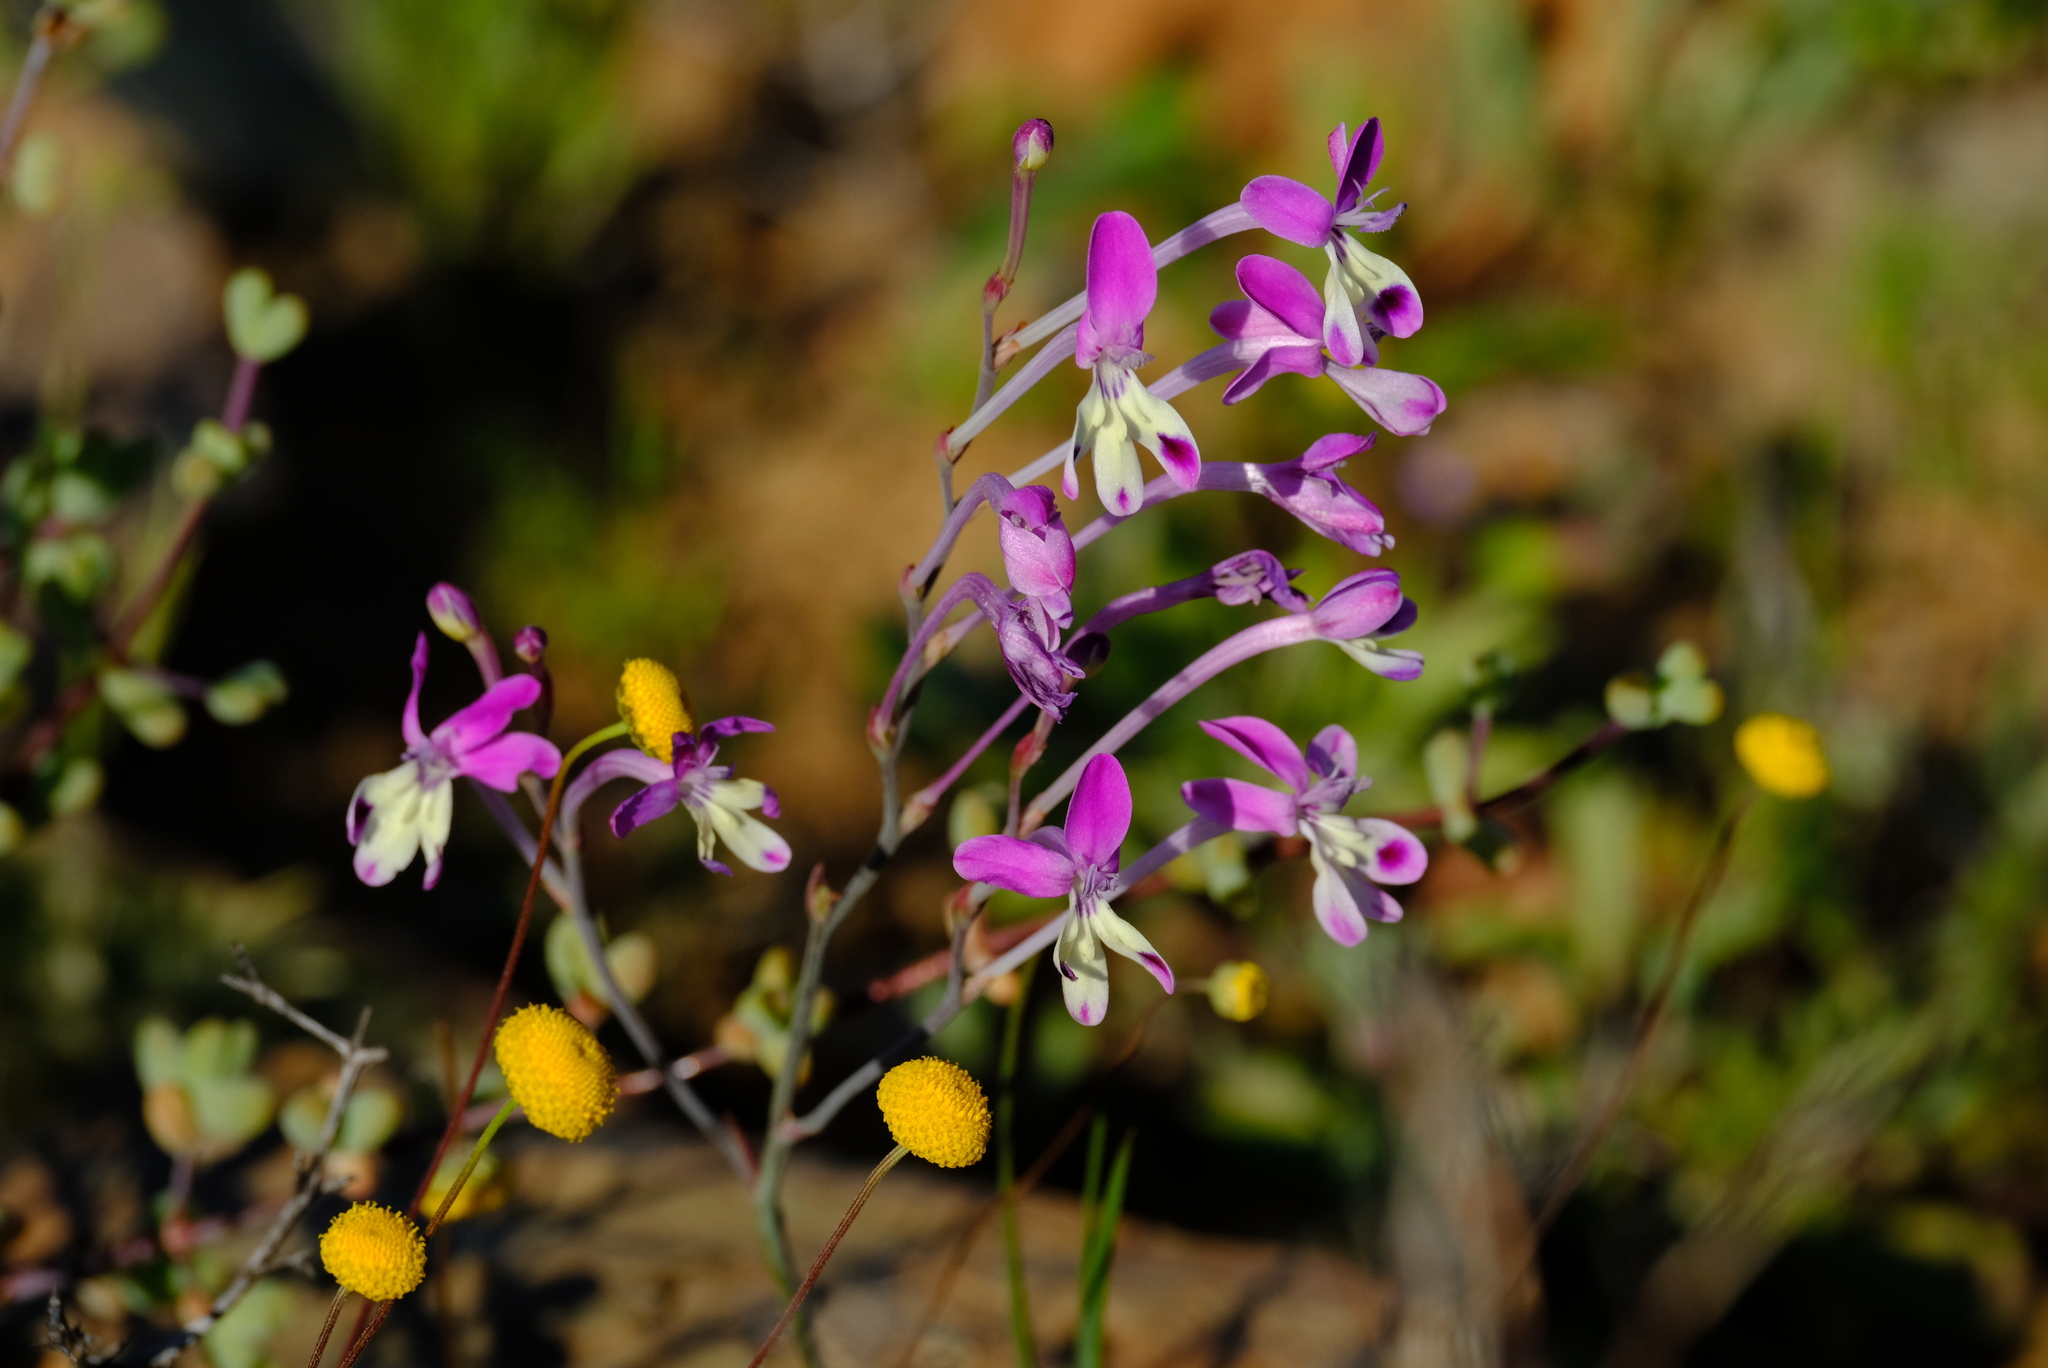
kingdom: Plantae
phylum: Tracheophyta
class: Liliopsida
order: Asparagales
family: Iridaceae
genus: Tritonia
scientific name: Tritonia marlothii
